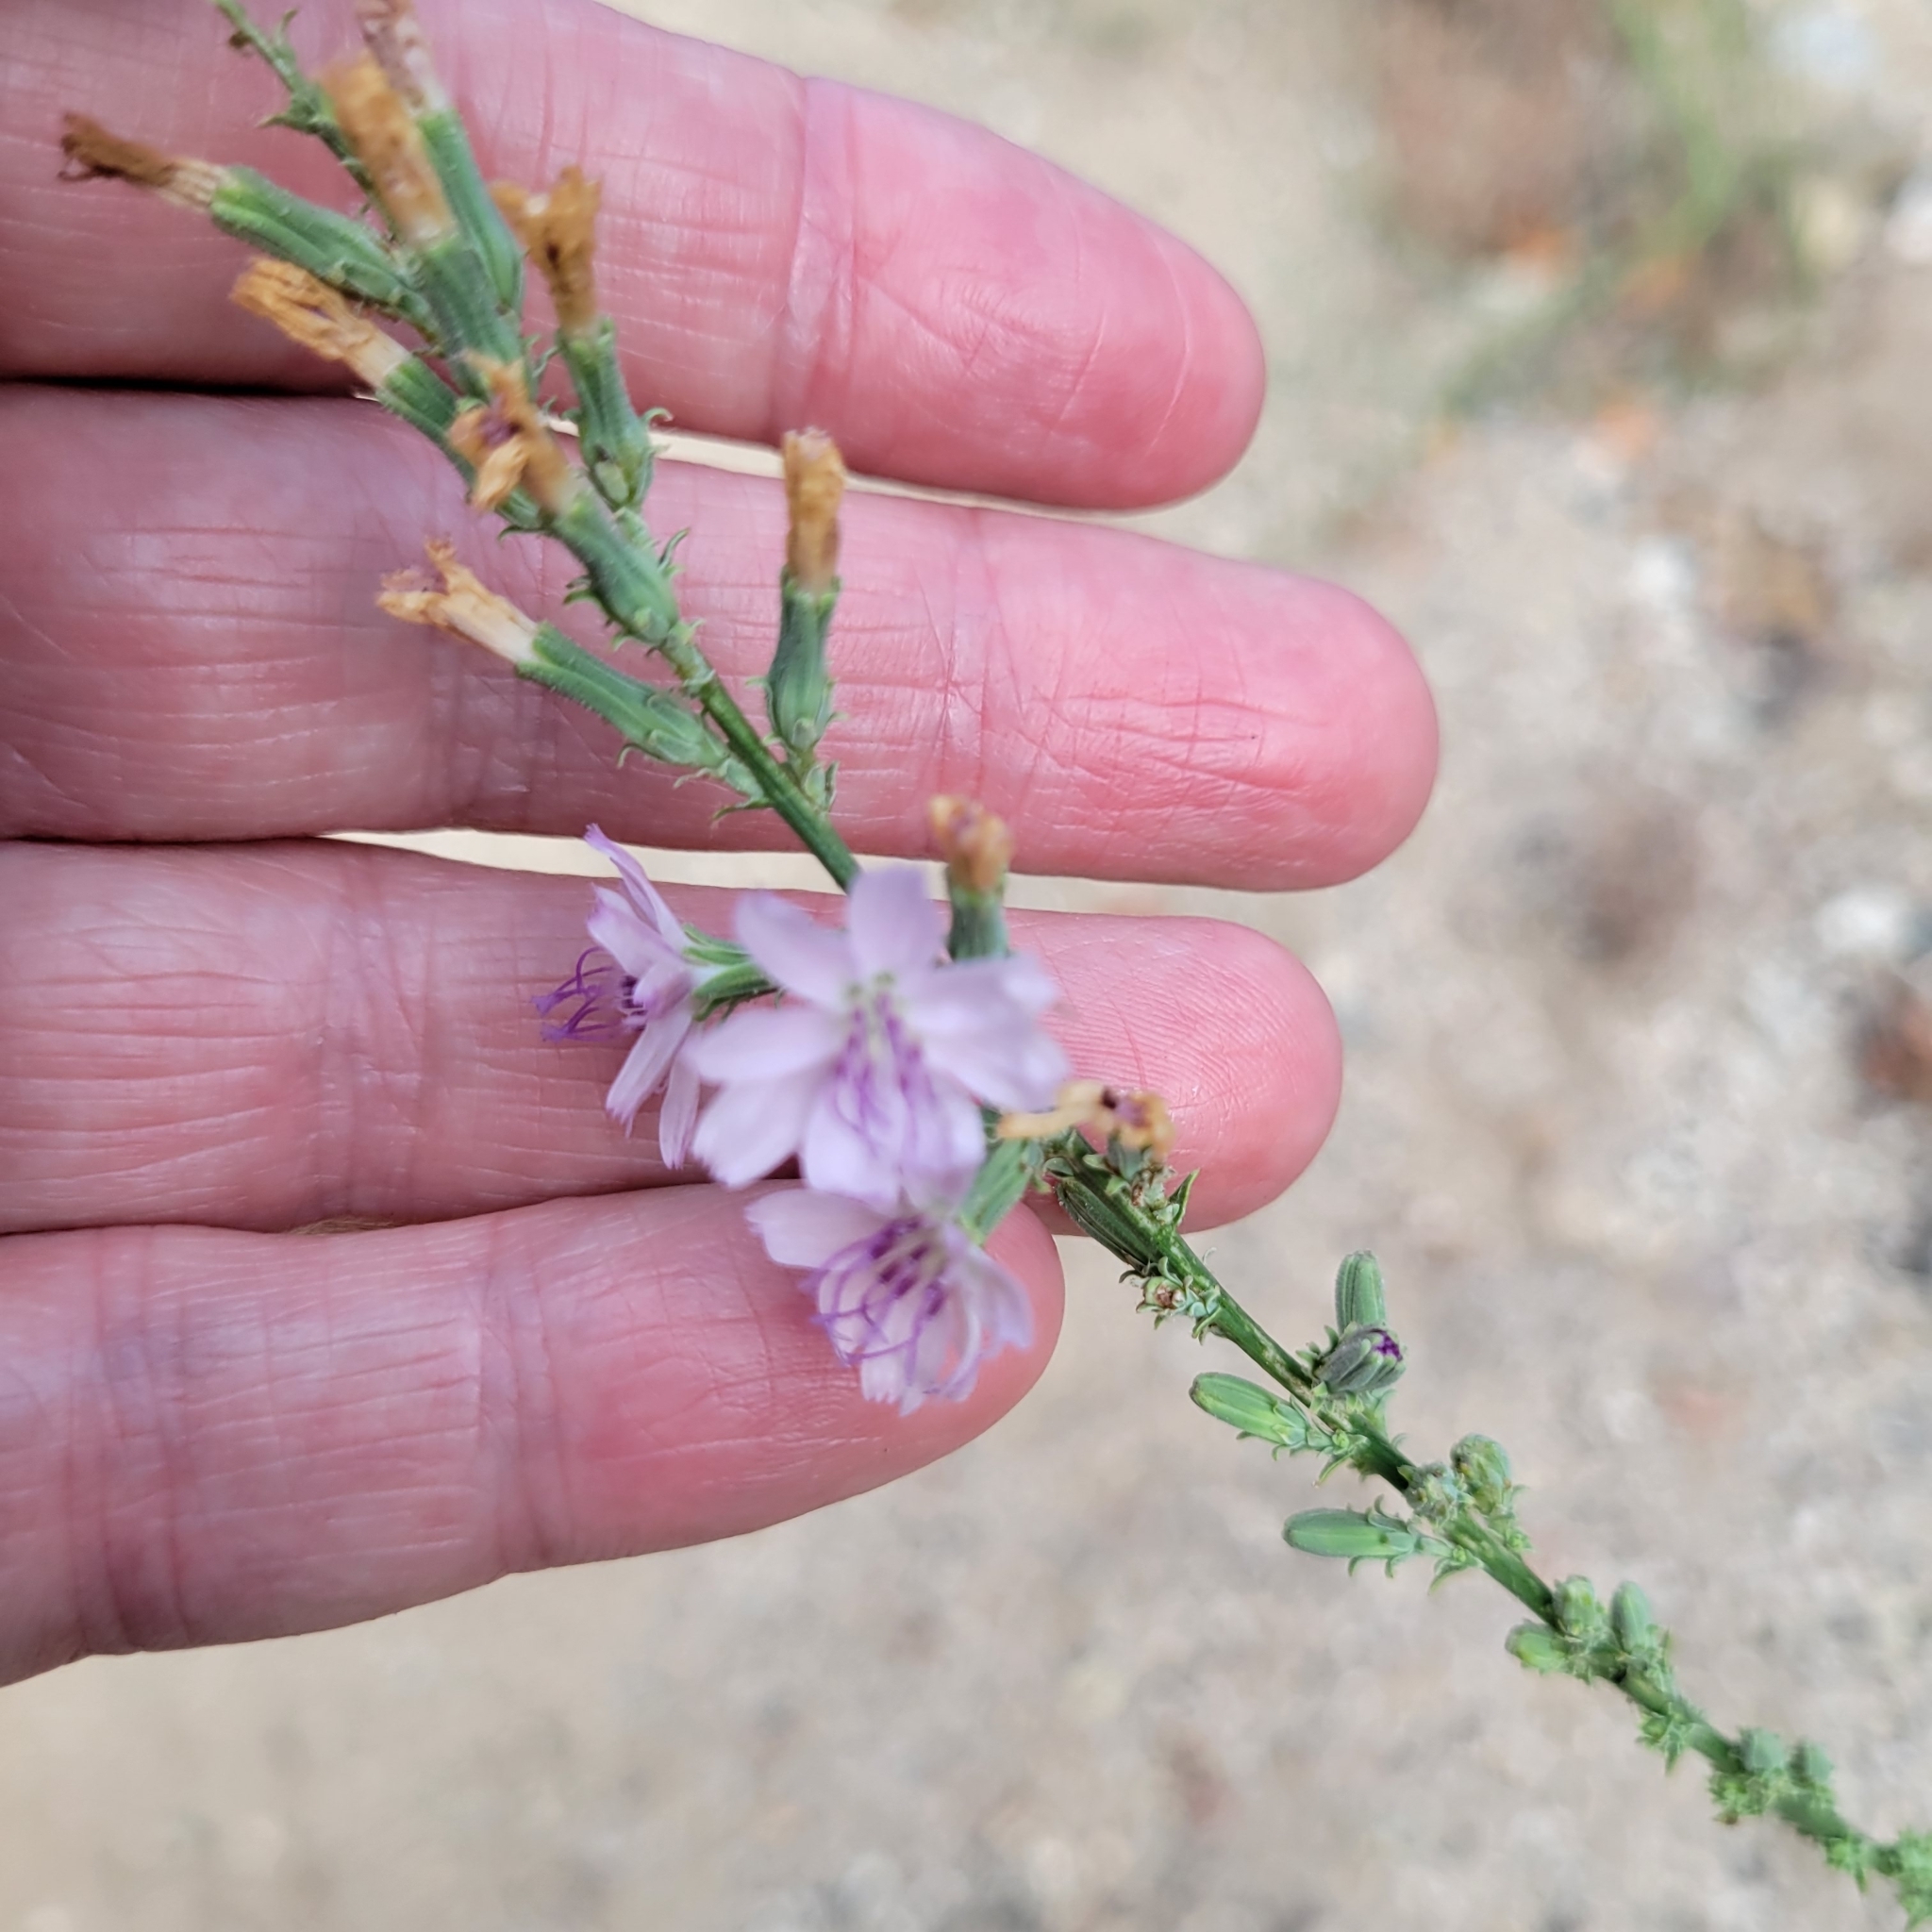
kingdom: Plantae
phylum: Tracheophyta
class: Magnoliopsida
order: Asterales
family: Asteraceae
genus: Stephanomeria
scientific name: Stephanomeria virgata
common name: Virgate wirelettuce
